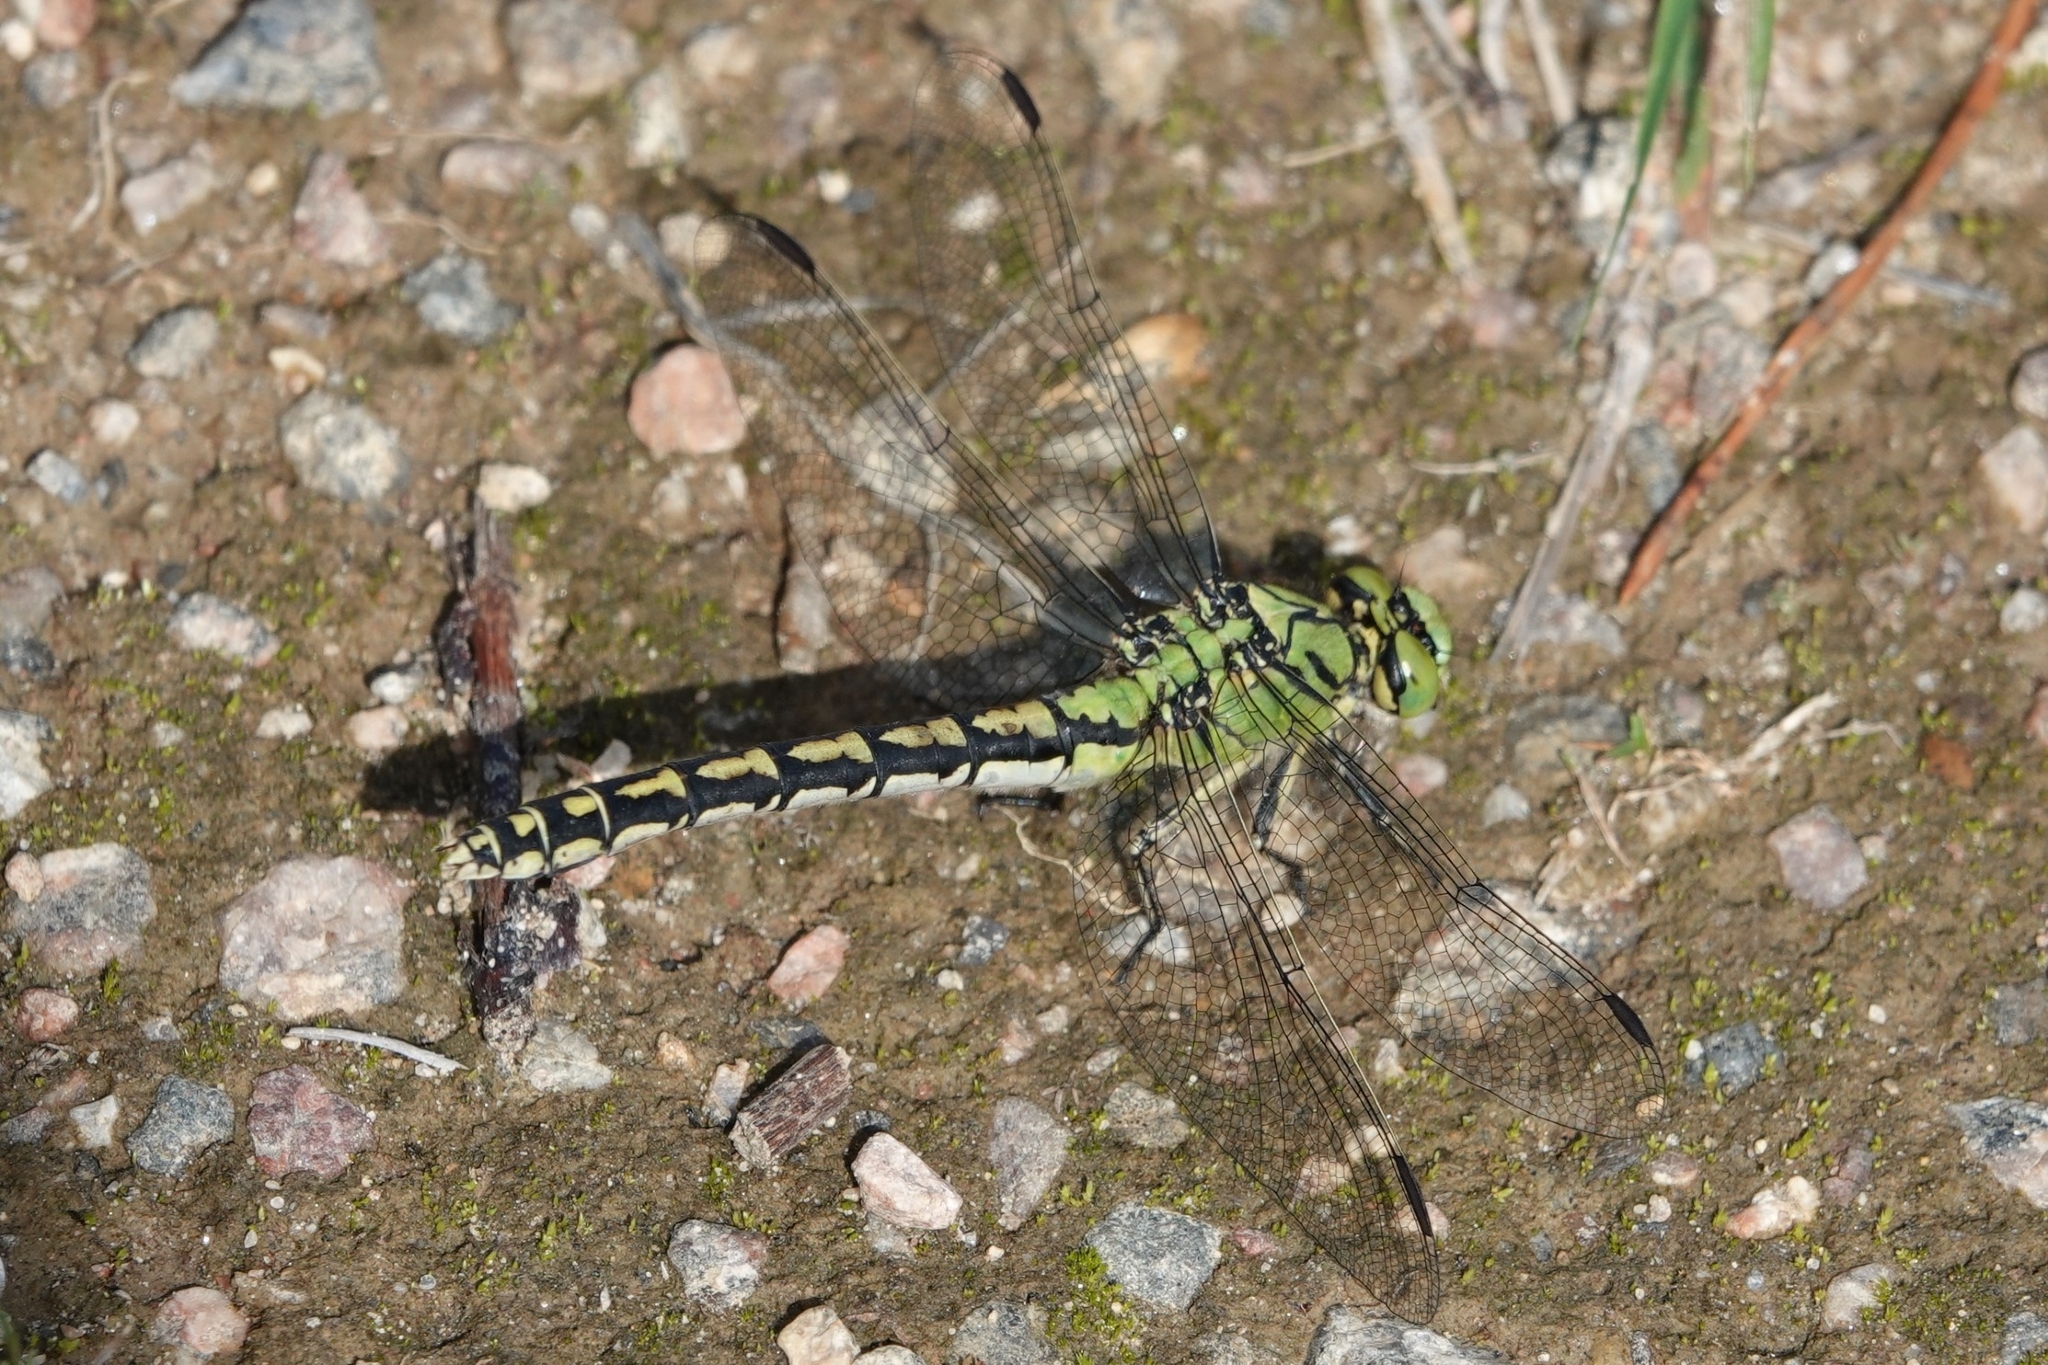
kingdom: Animalia
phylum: Arthropoda
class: Insecta
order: Odonata
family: Gomphidae
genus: Ophiogomphus
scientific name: Ophiogomphus cecilia
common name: Green snaketail
